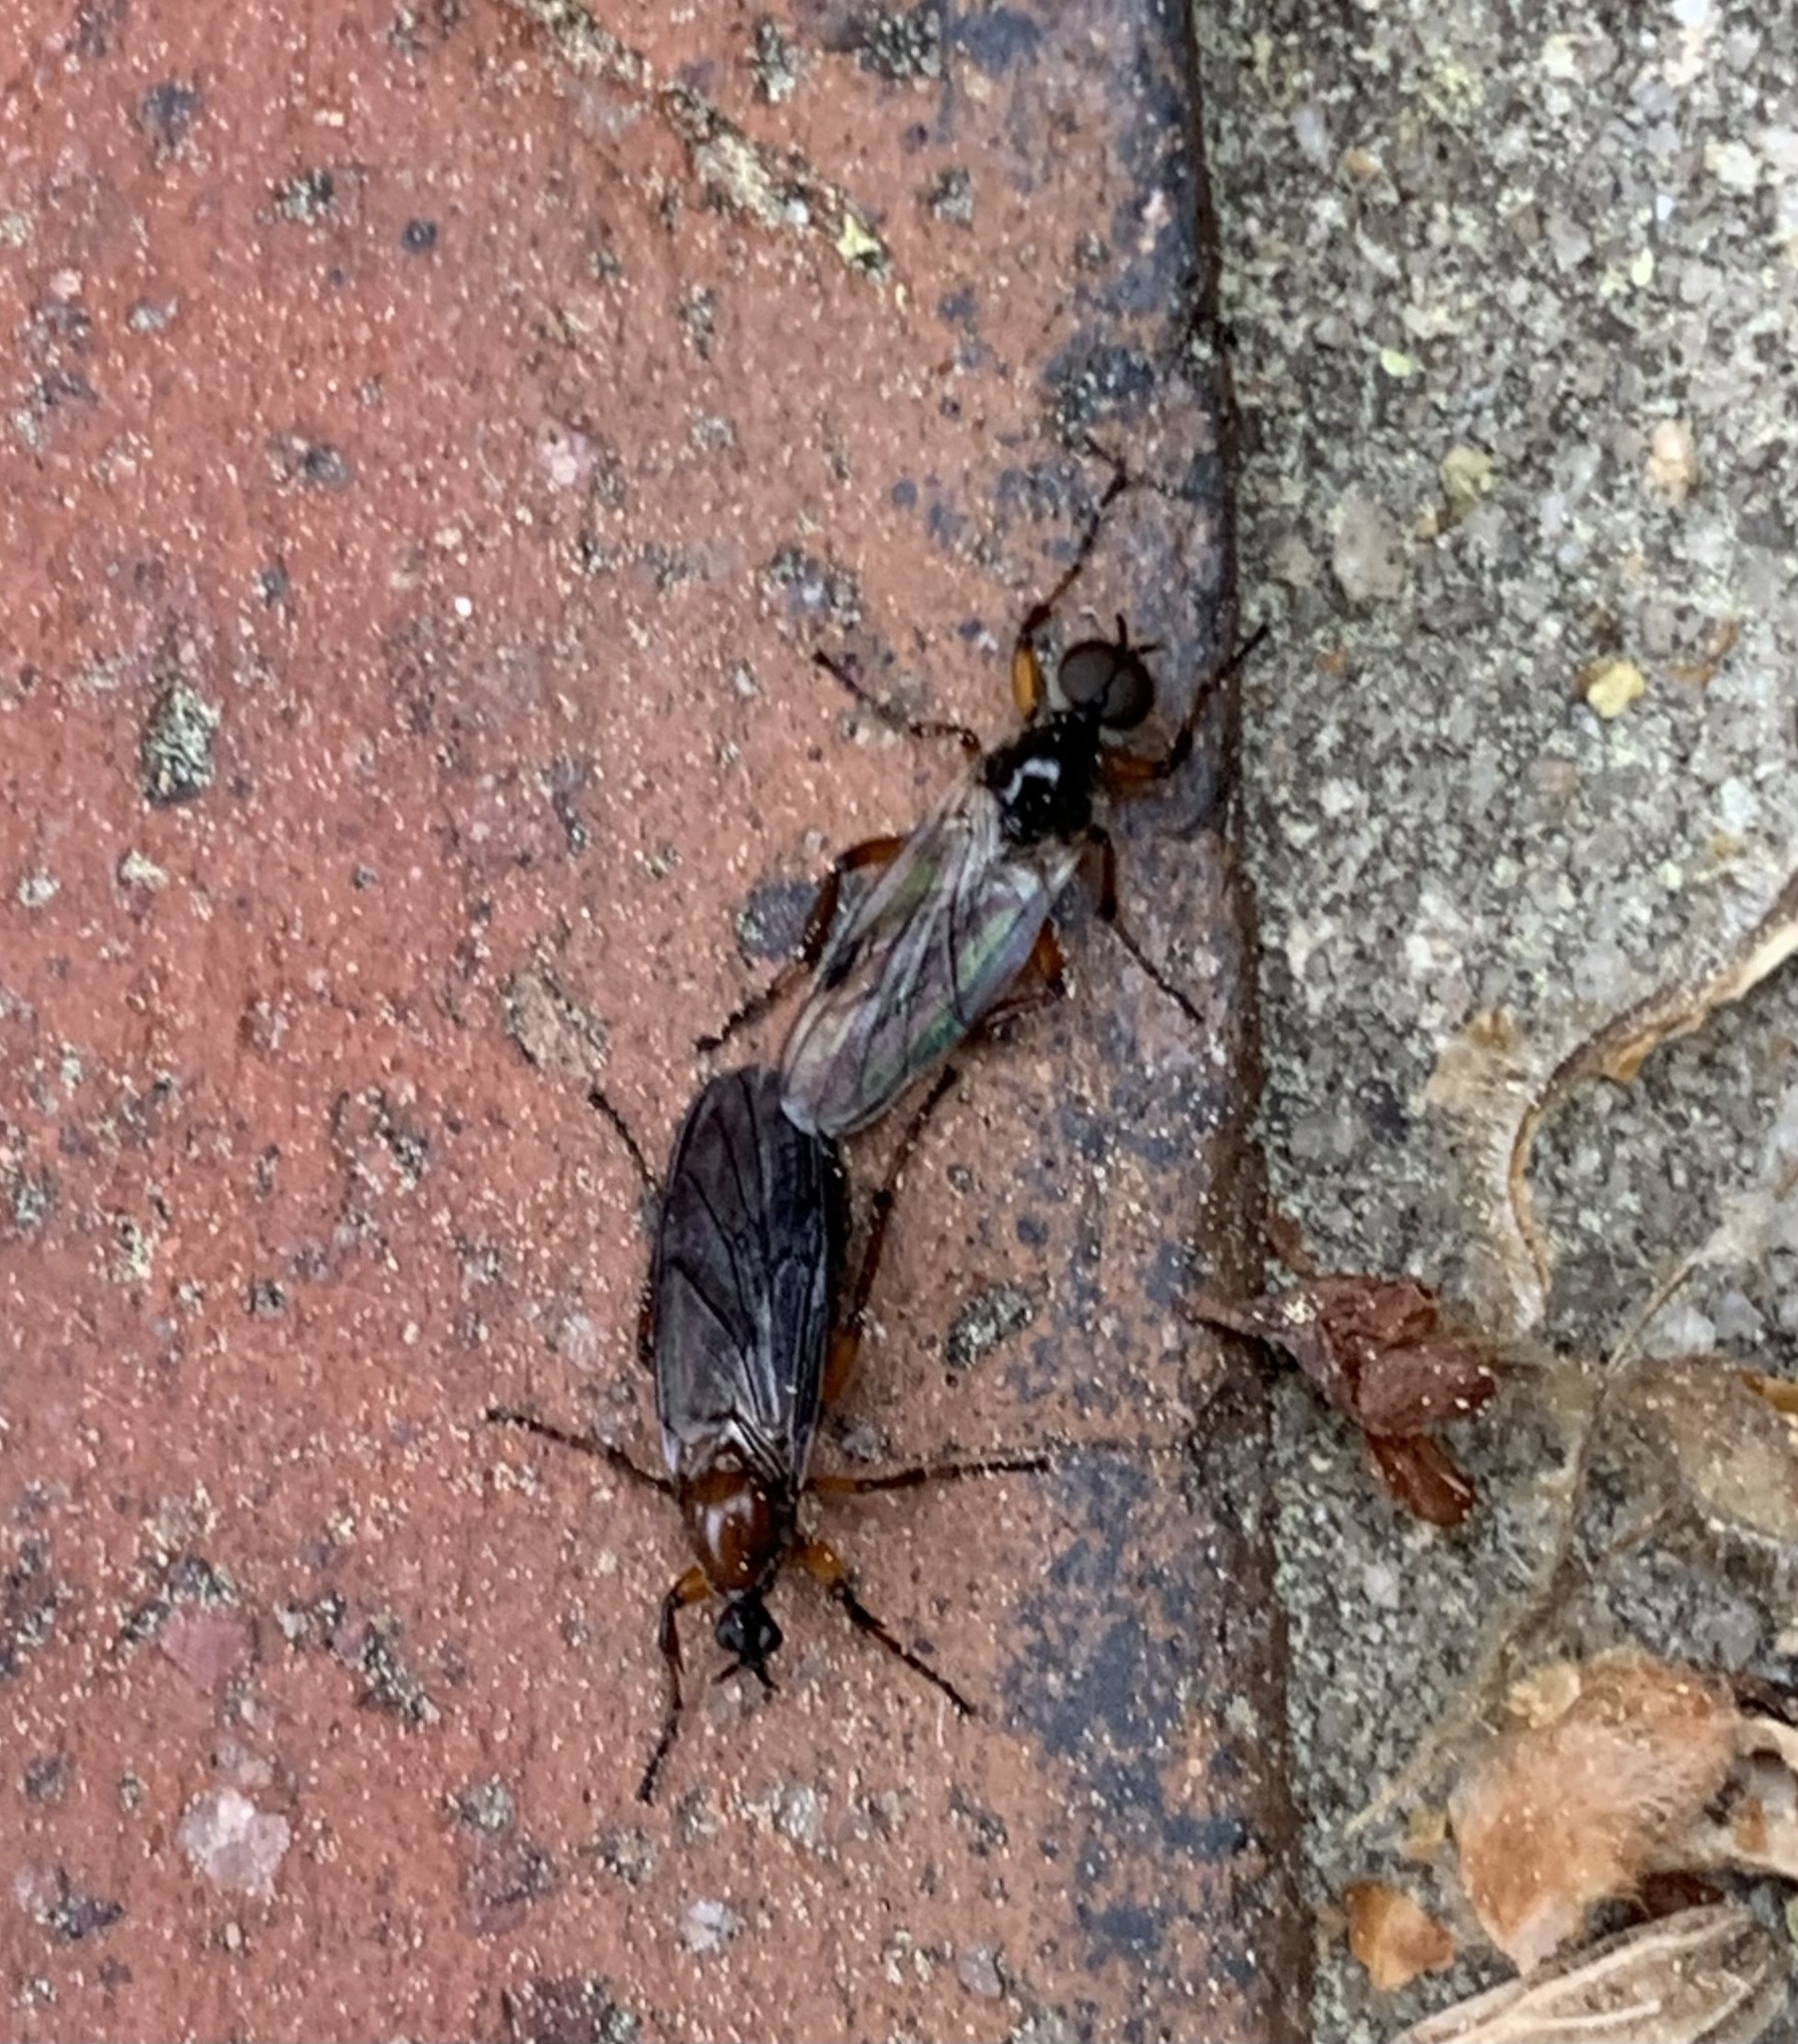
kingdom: Animalia
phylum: Arthropoda
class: Insecta
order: Diptera
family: Bibionidae
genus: Bibio
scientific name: Bibio articulatus
